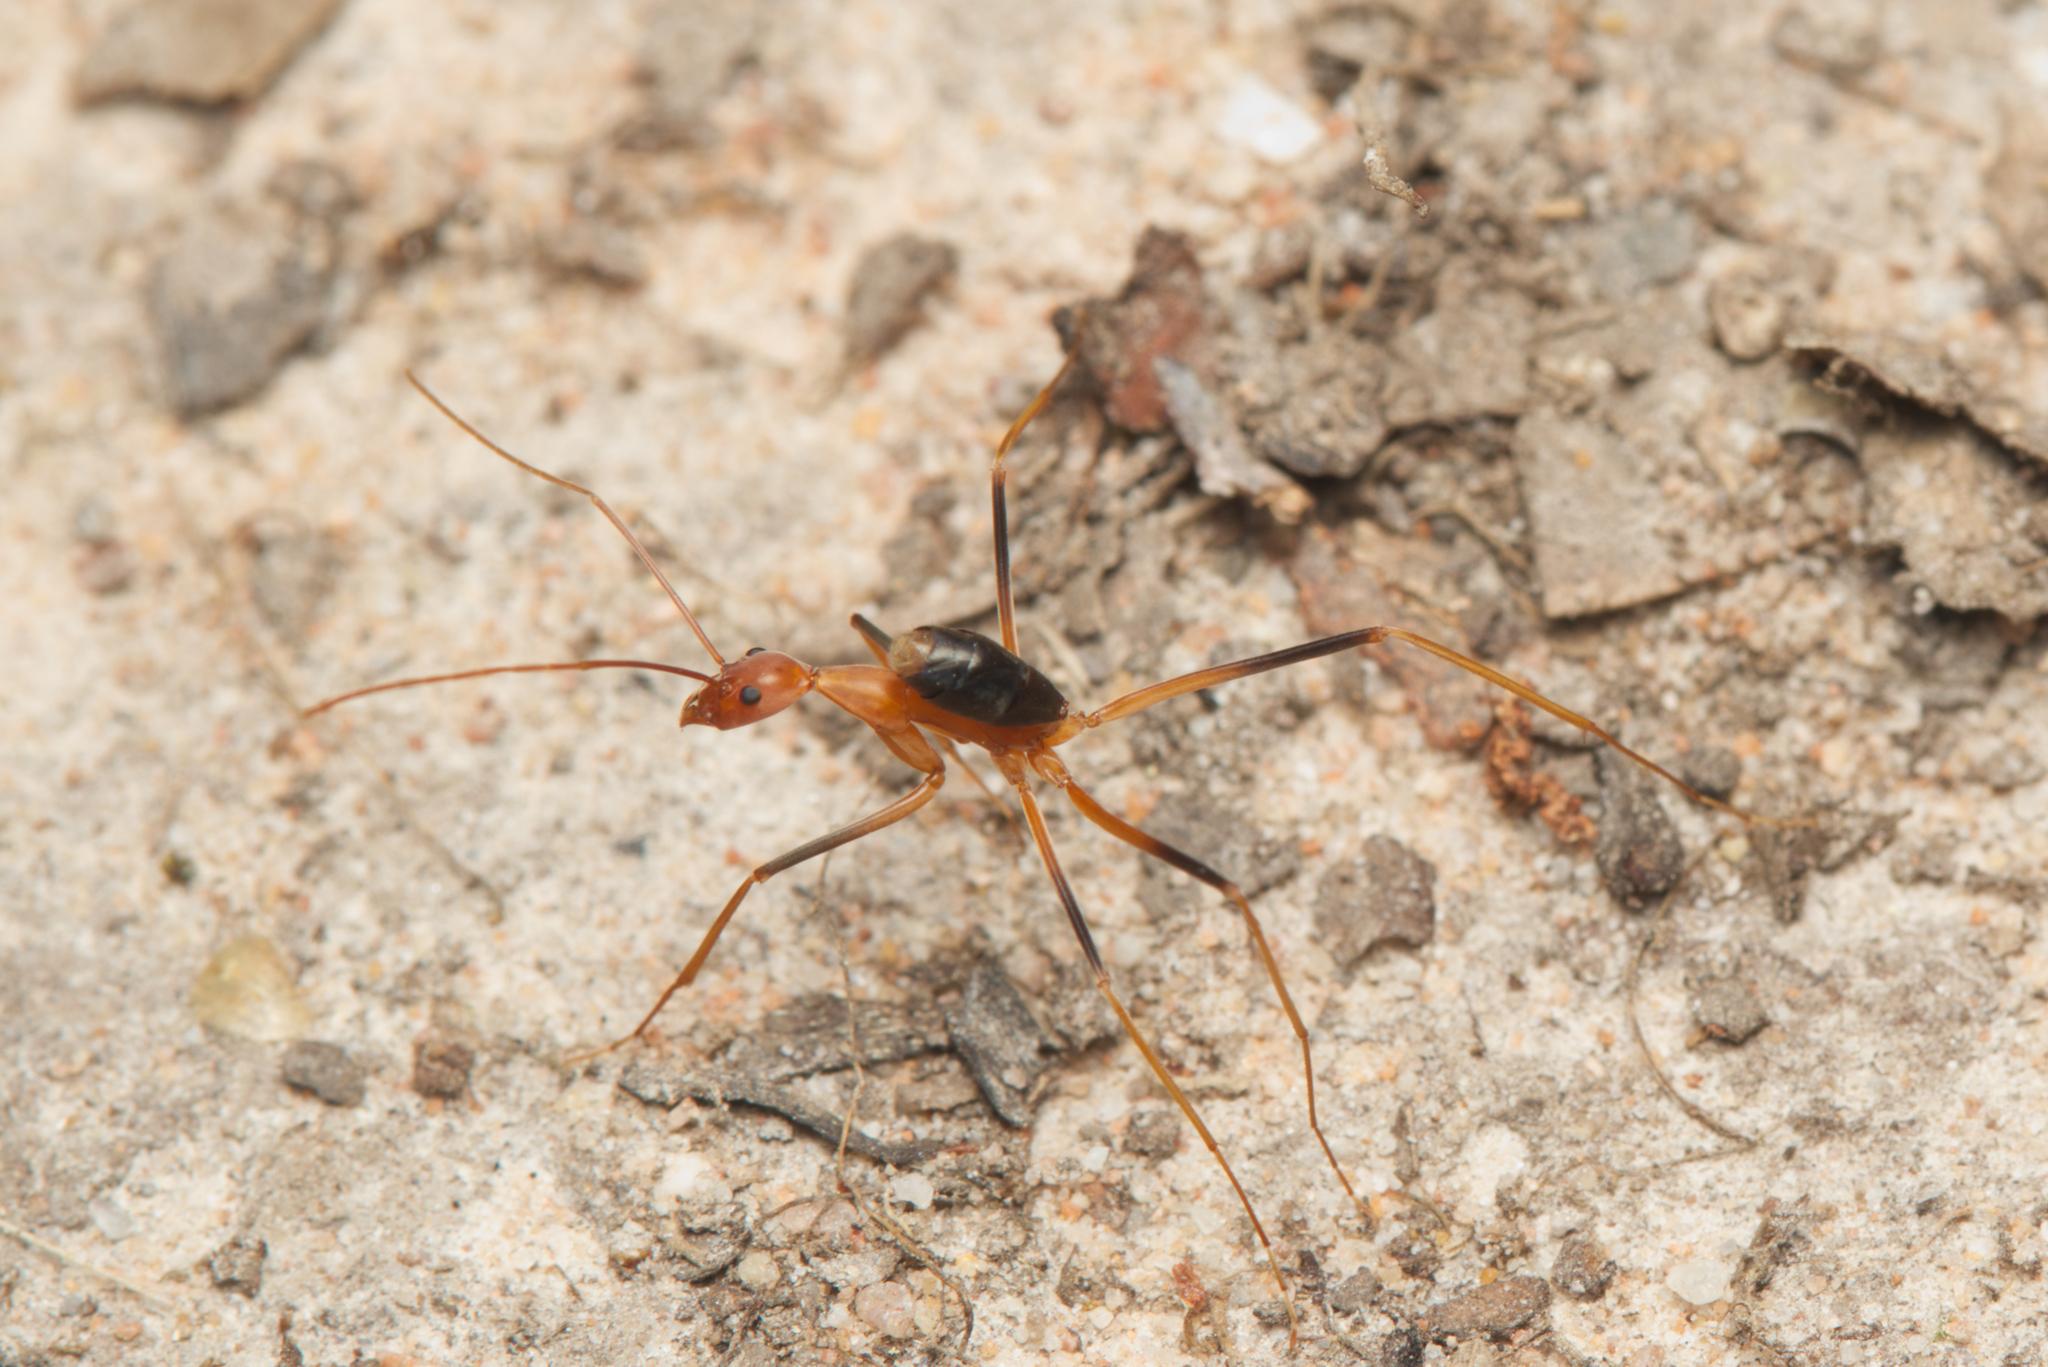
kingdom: Animalia
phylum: Arthropoda
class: Insecta
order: Hymenoptera
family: Formicidae
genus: Leptomyrmex
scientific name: Leptomyrmex rufipes
